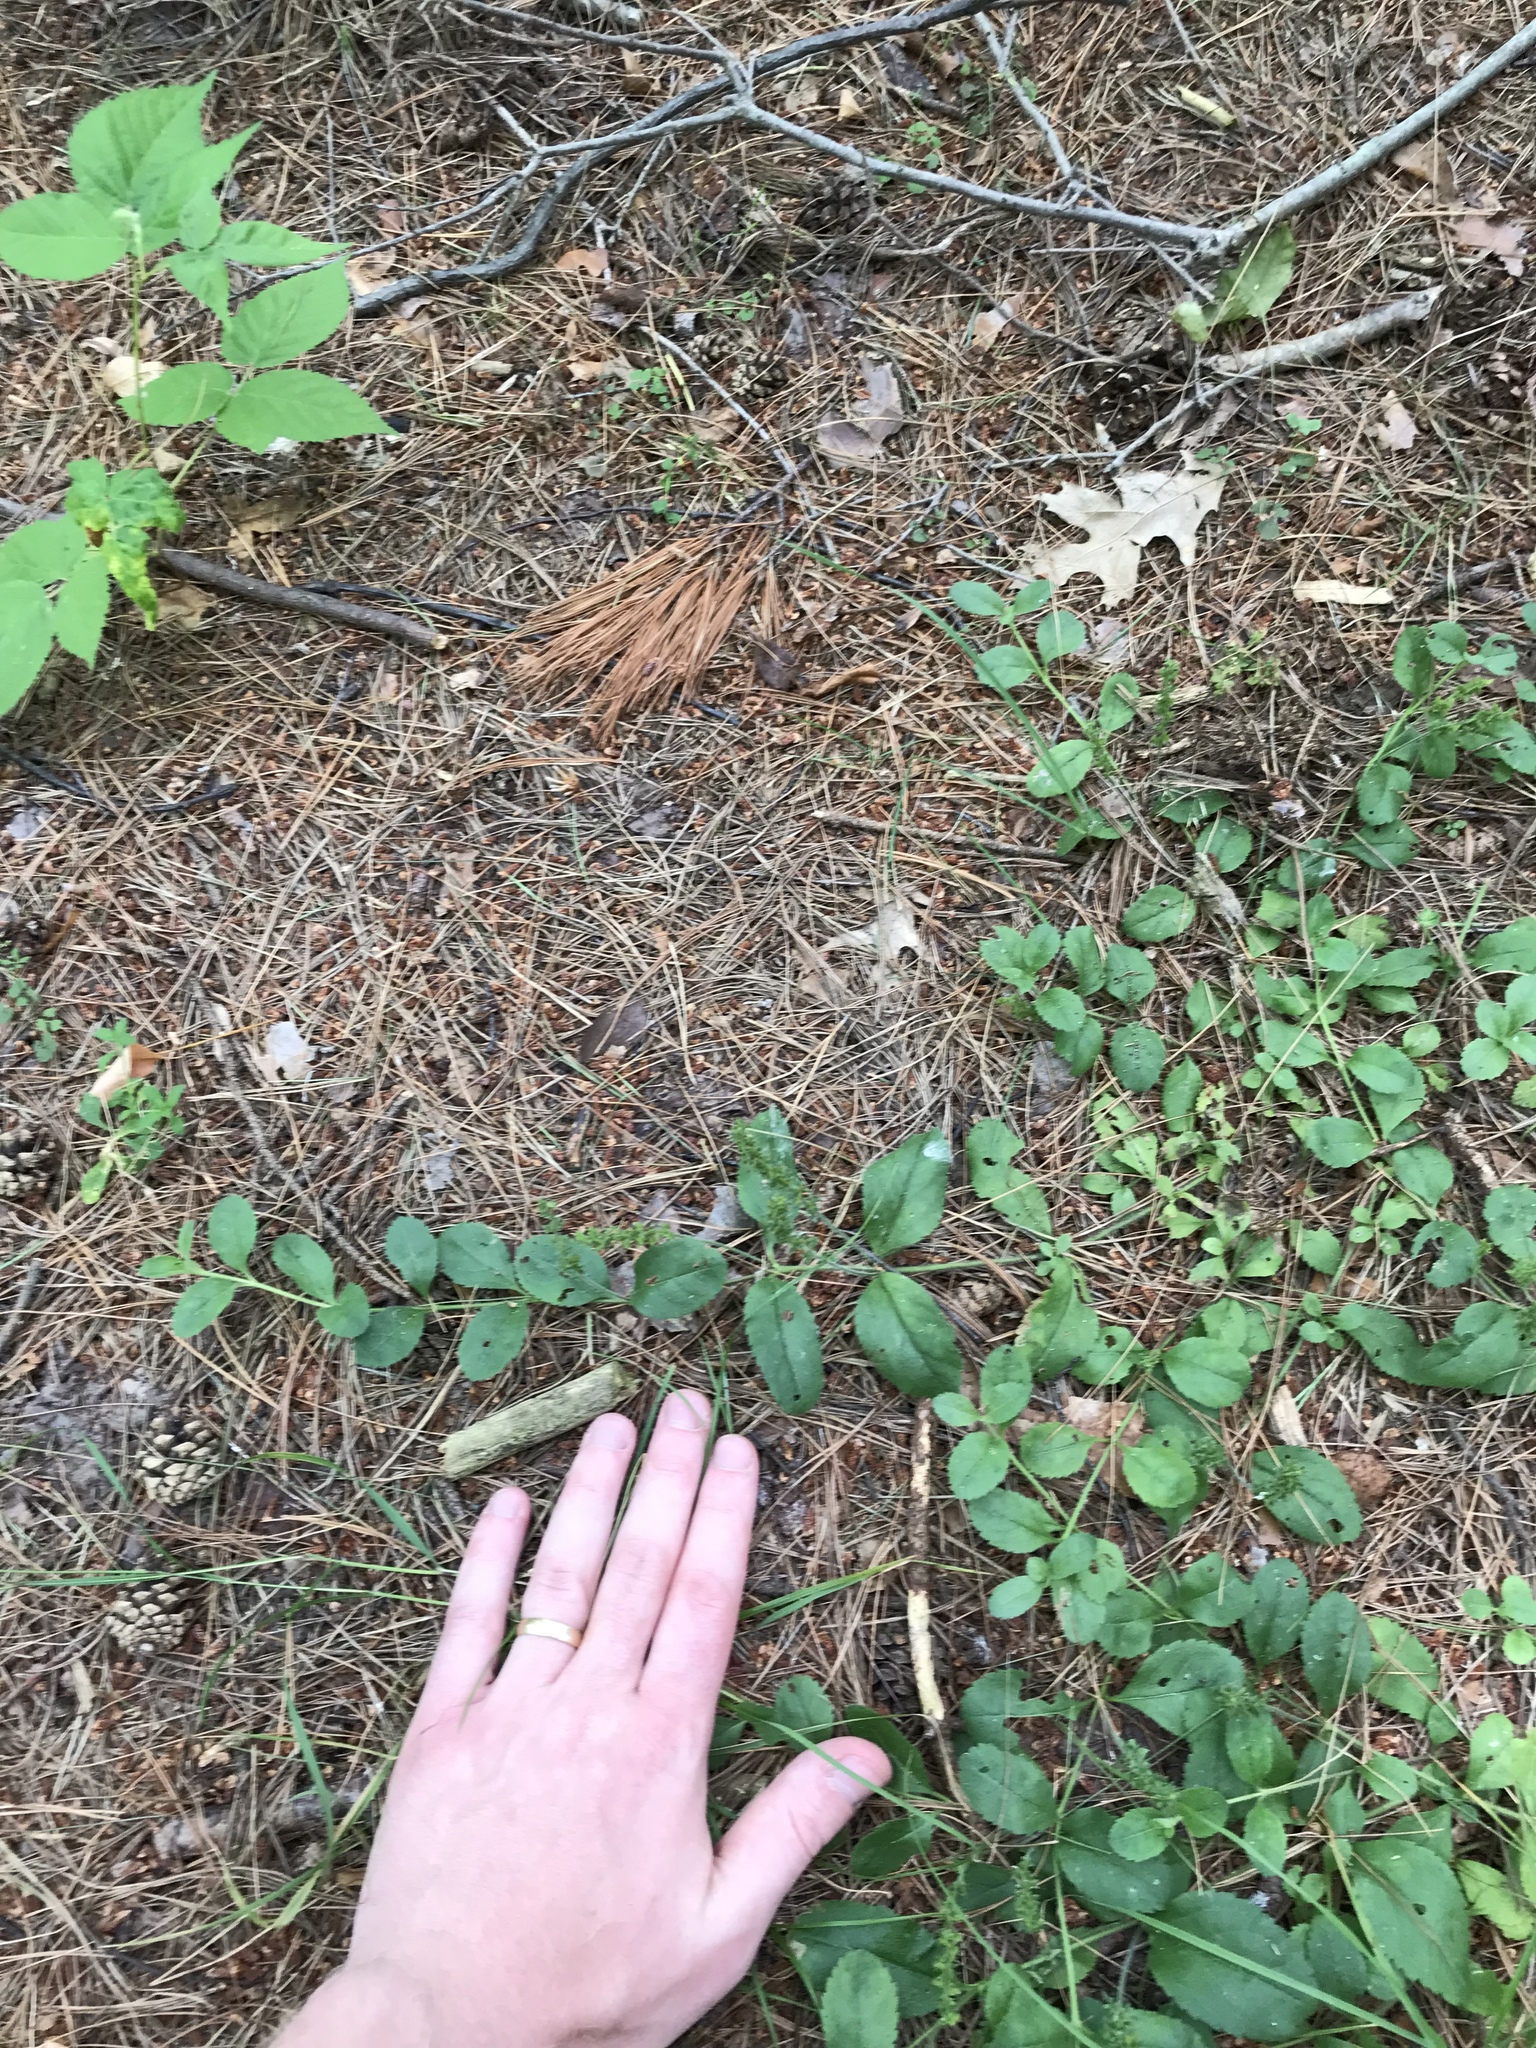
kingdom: Plantae
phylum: Tracheophyta
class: Magnoliopsida
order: Lamiales
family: Plantaginaceae
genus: Veronica
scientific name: Veronica officinalis
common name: Common speedwell
